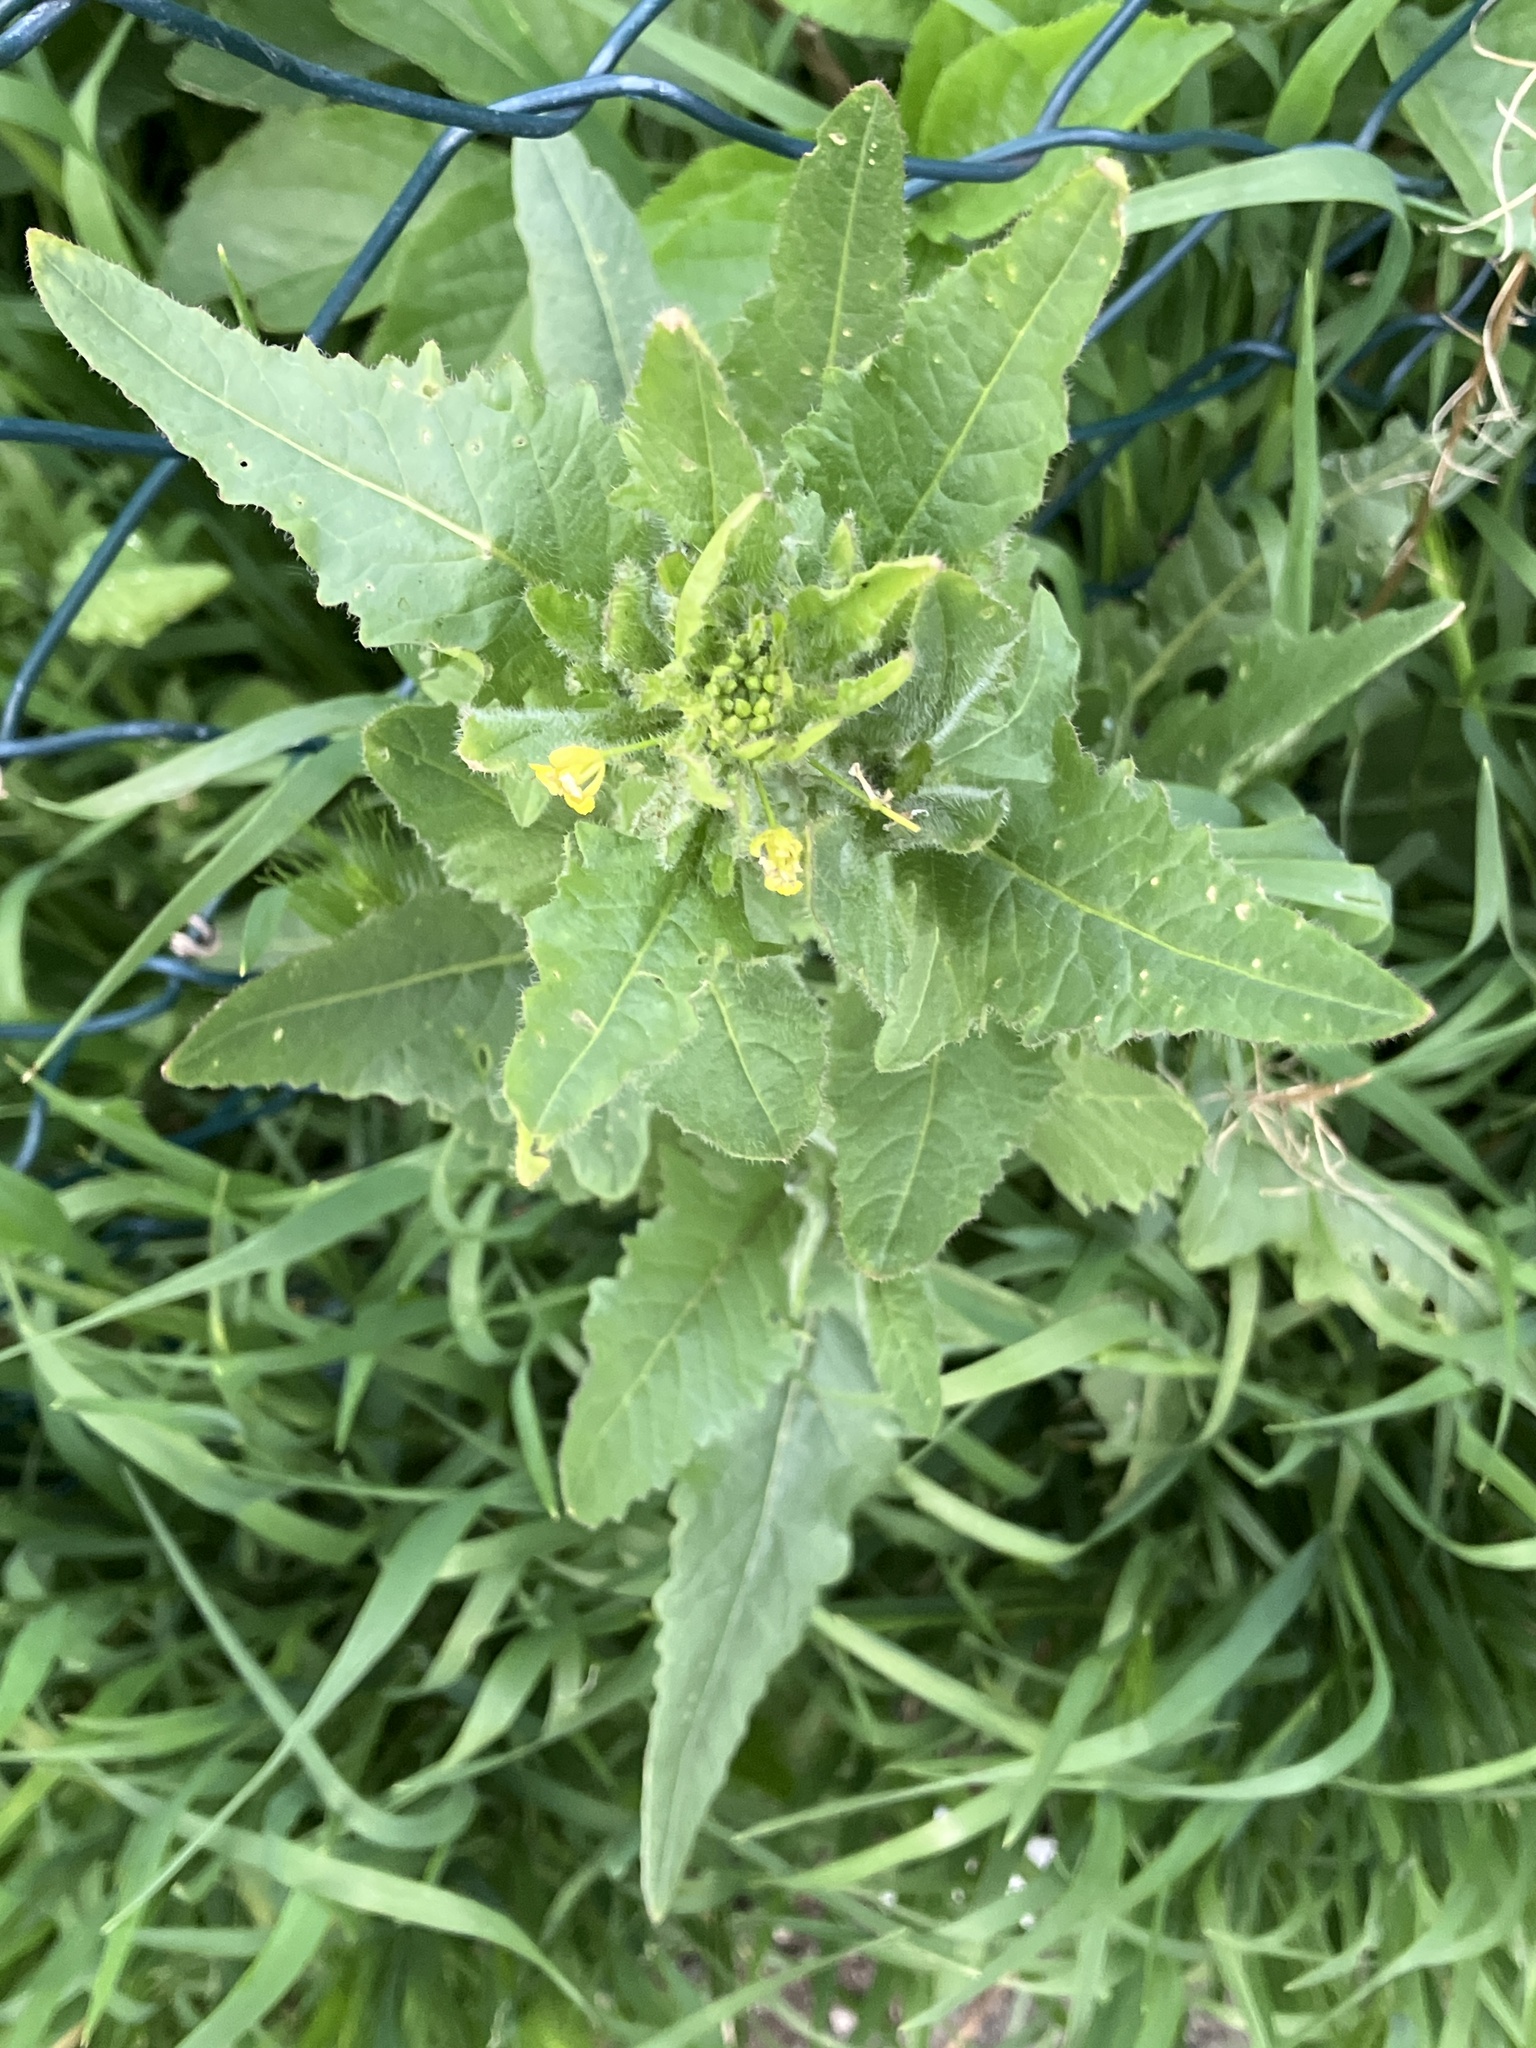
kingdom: Plantae
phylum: Tracheophyta
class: Magnoliopsida
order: Brassicales
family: Brassicaceae
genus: Sisymbrium
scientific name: Sisymbrium loeselii
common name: False london-rocket
